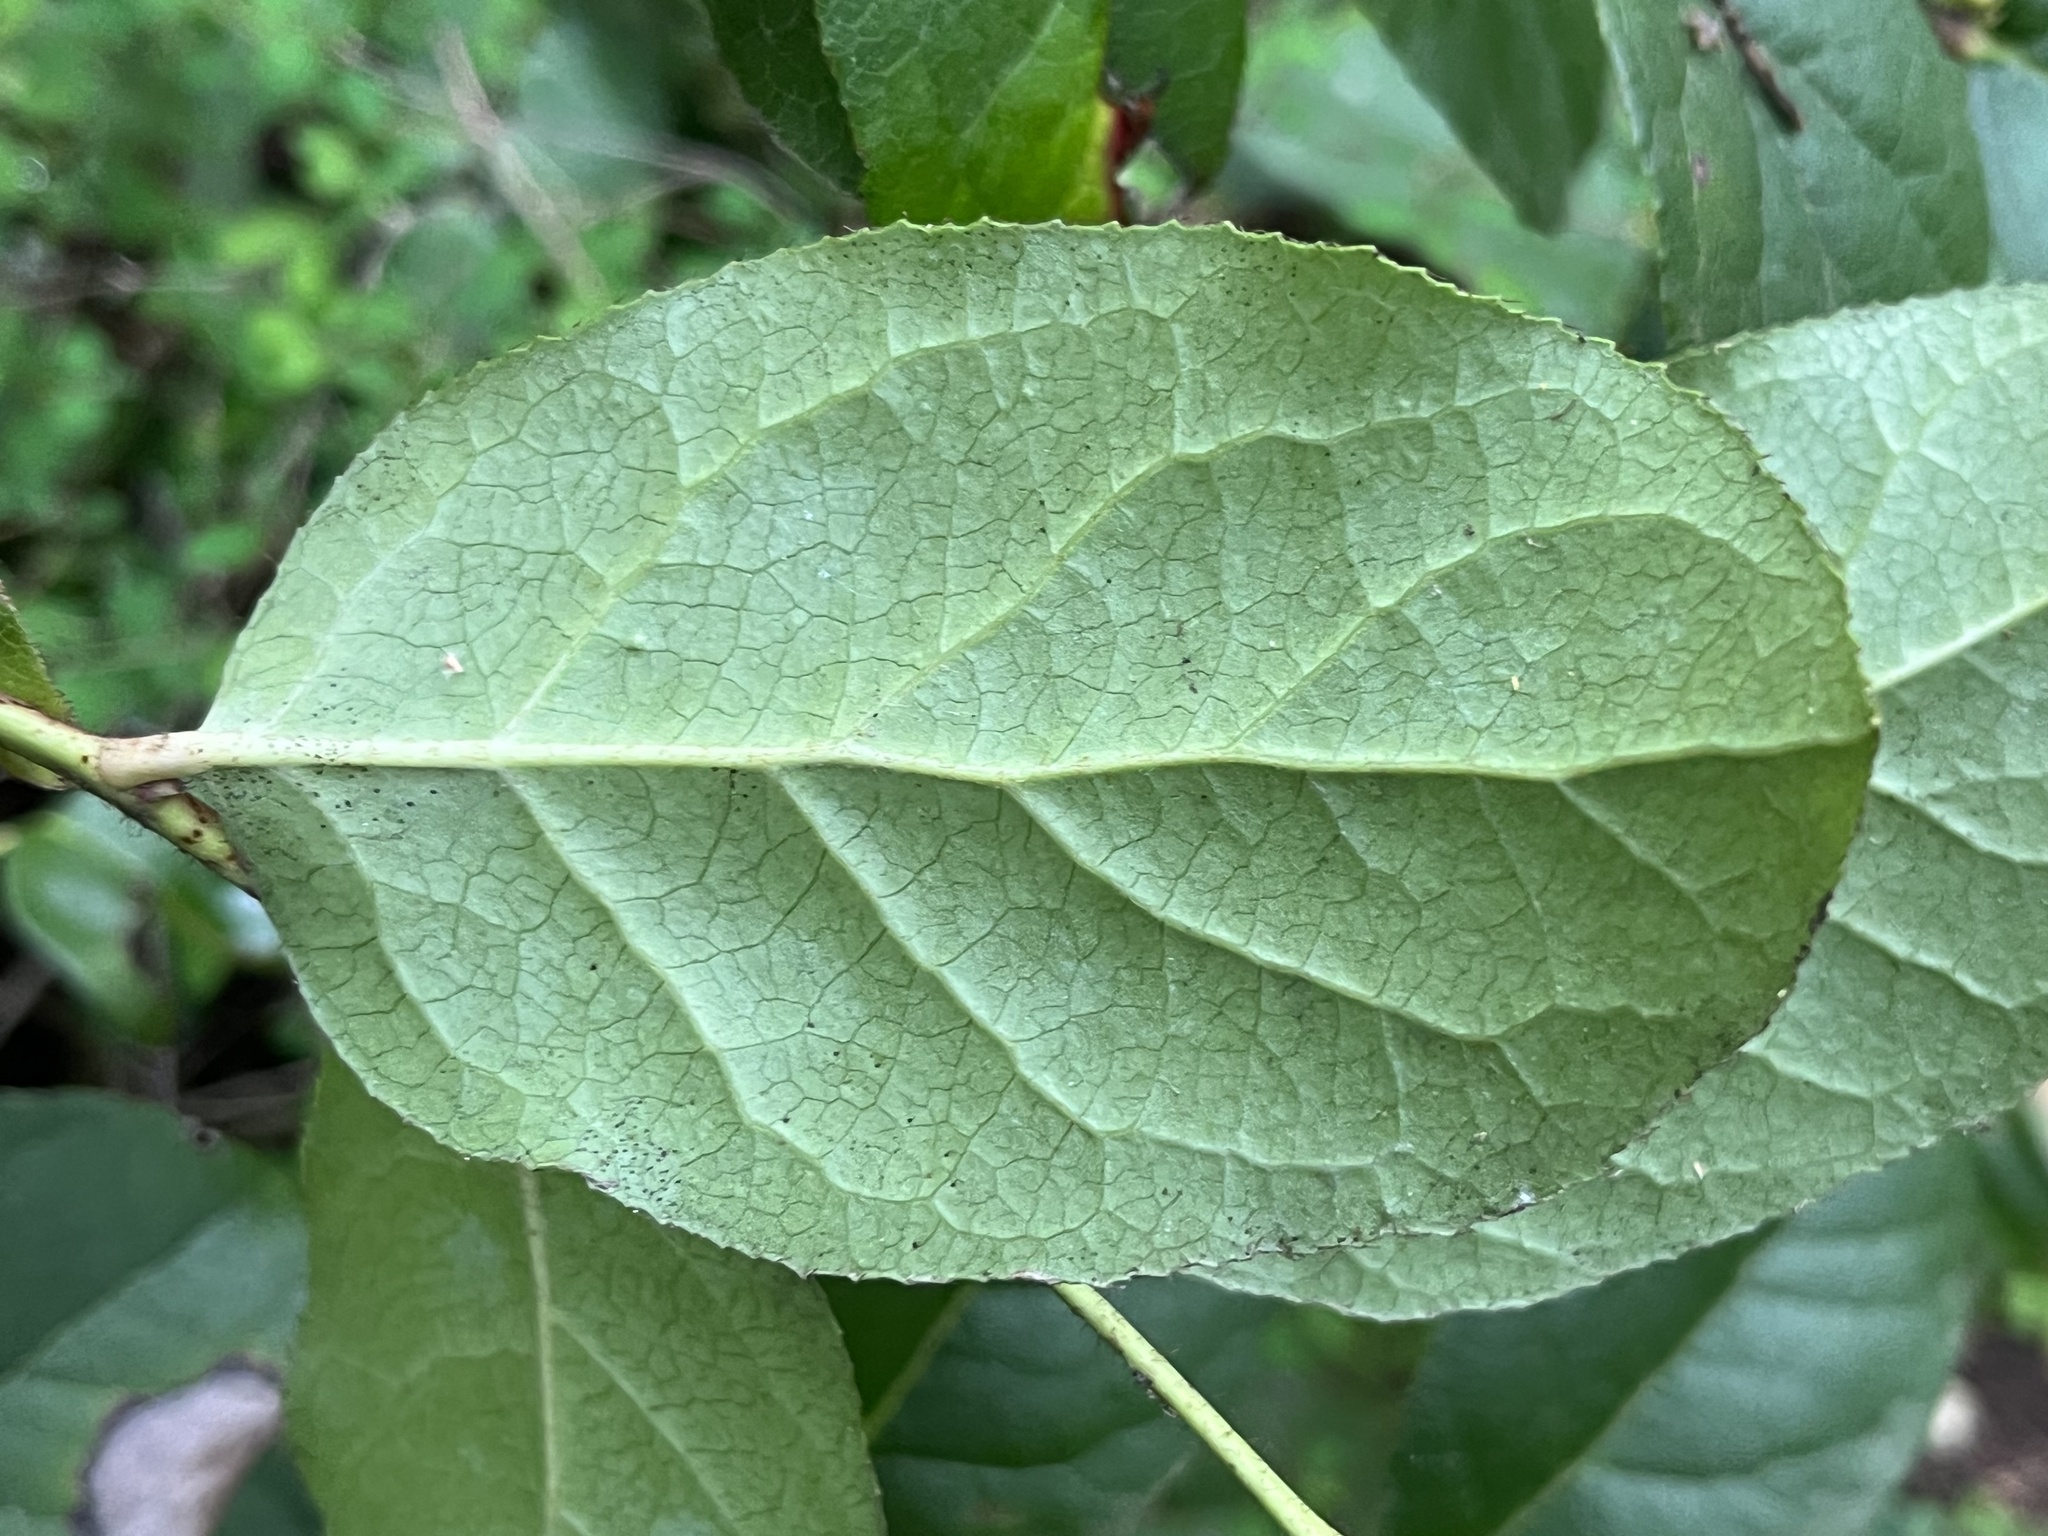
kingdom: Plantae
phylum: Tracheophyta
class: Magnoliopsida
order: Ericales
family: Ericaceae
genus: Gaultheria
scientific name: Gaultheria shallon
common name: Shallon
